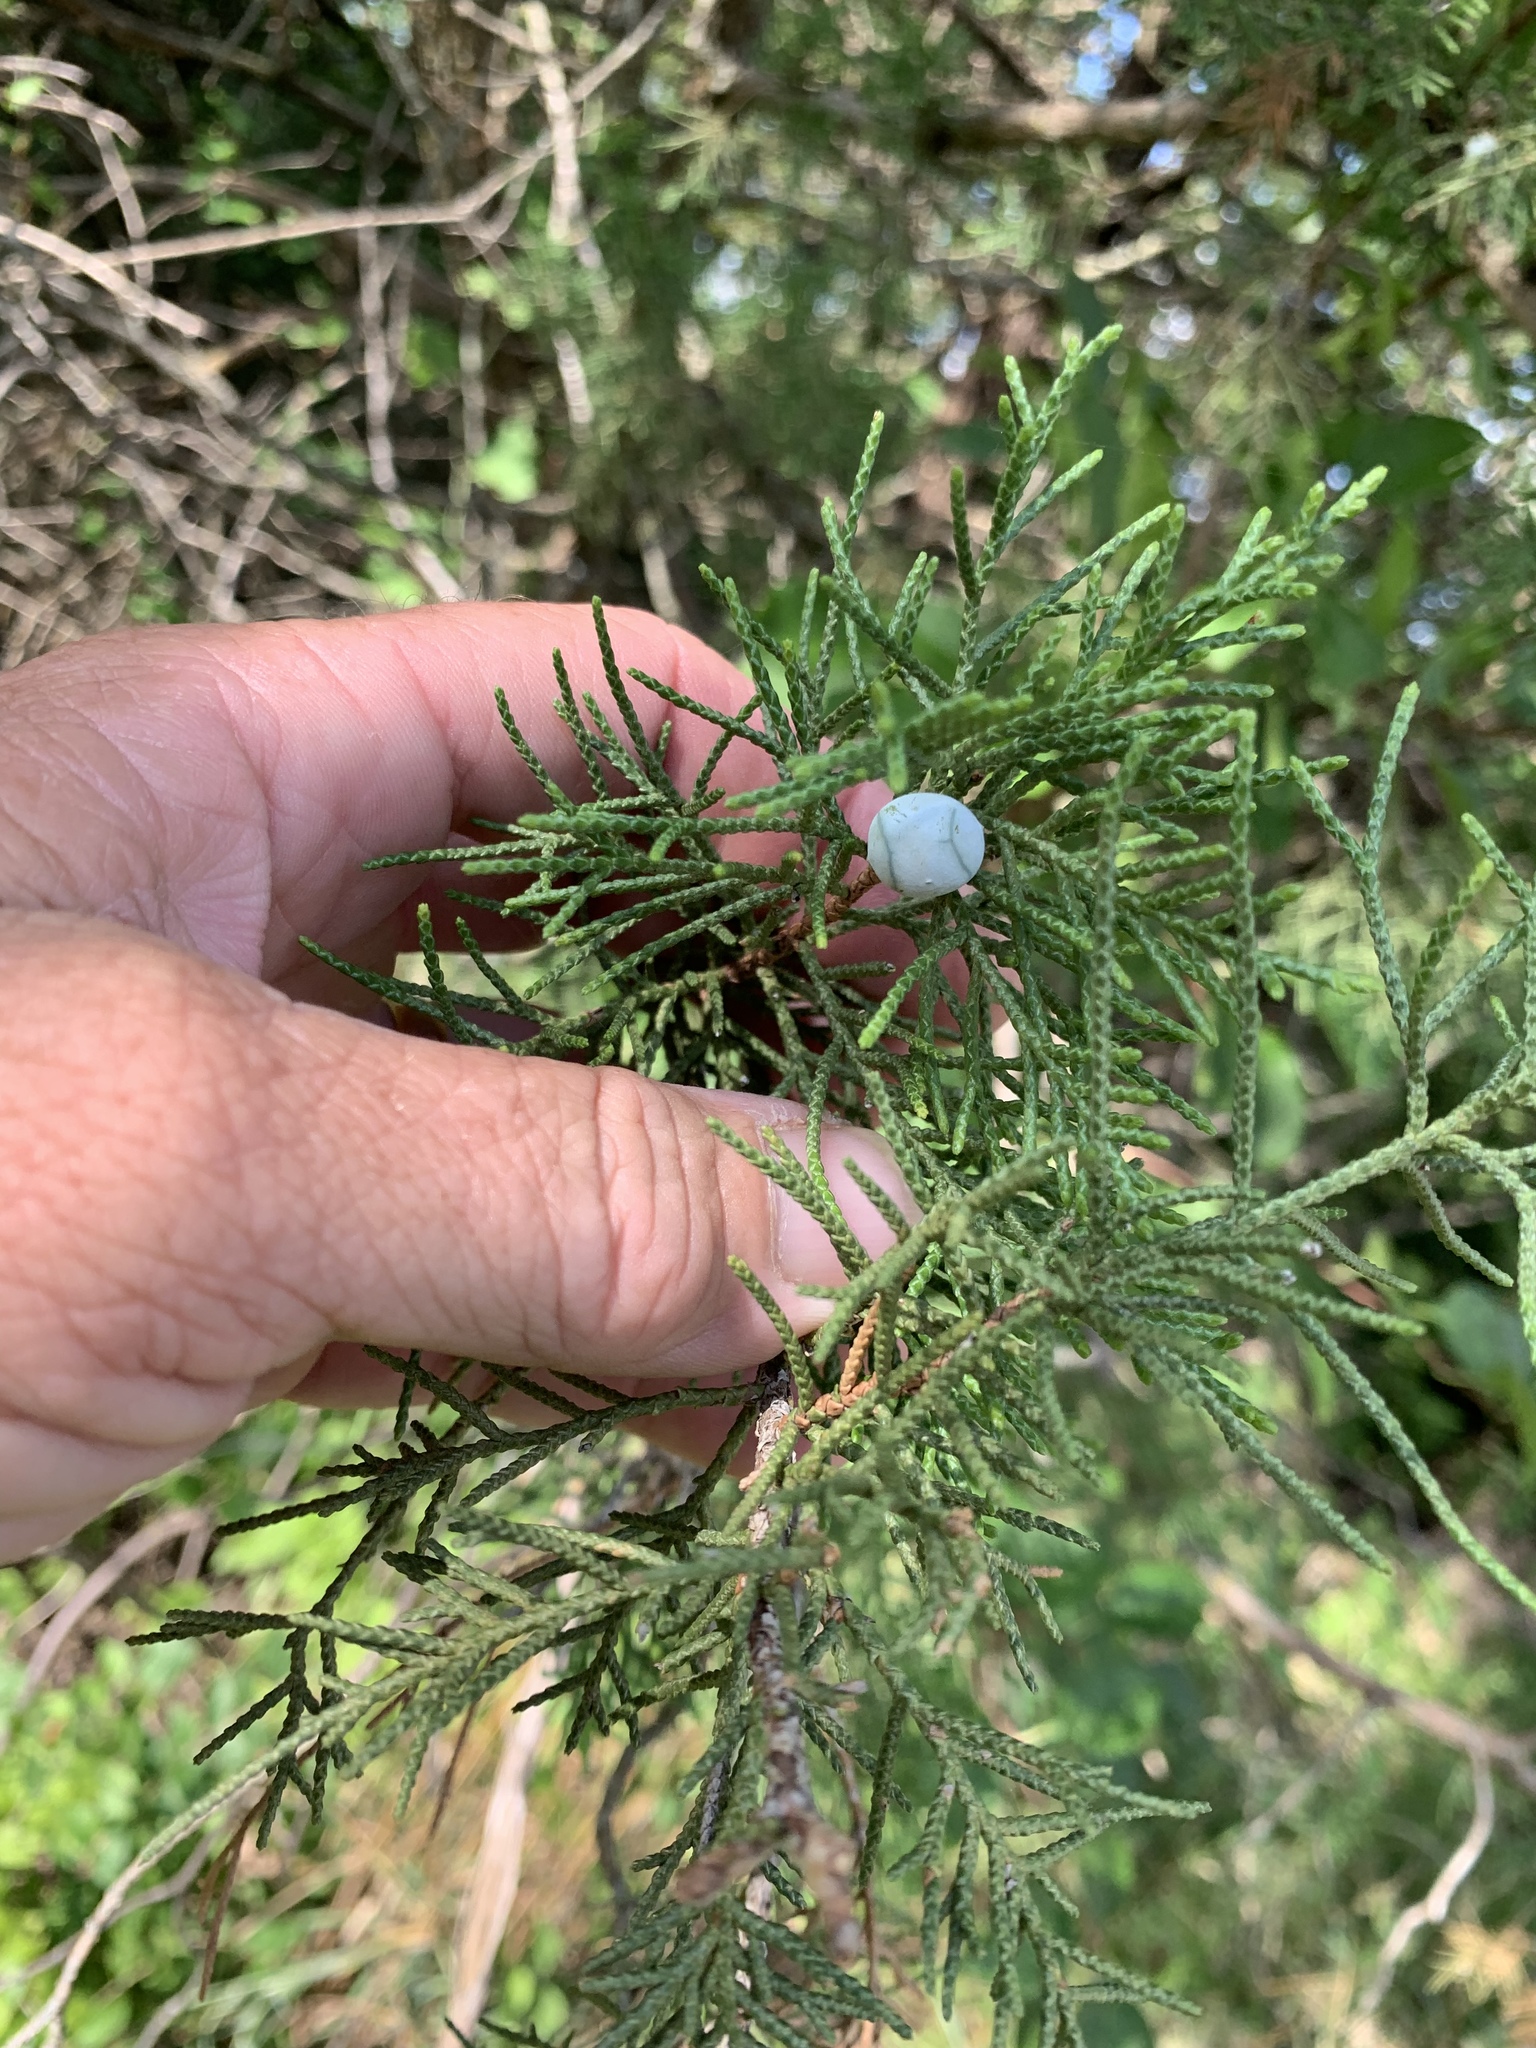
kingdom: Plantae
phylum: Tracheophyta
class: Pinopsida
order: Pinales
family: Cupressaceae
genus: Juniperus
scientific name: Juniperus virginiana
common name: Red juniper
